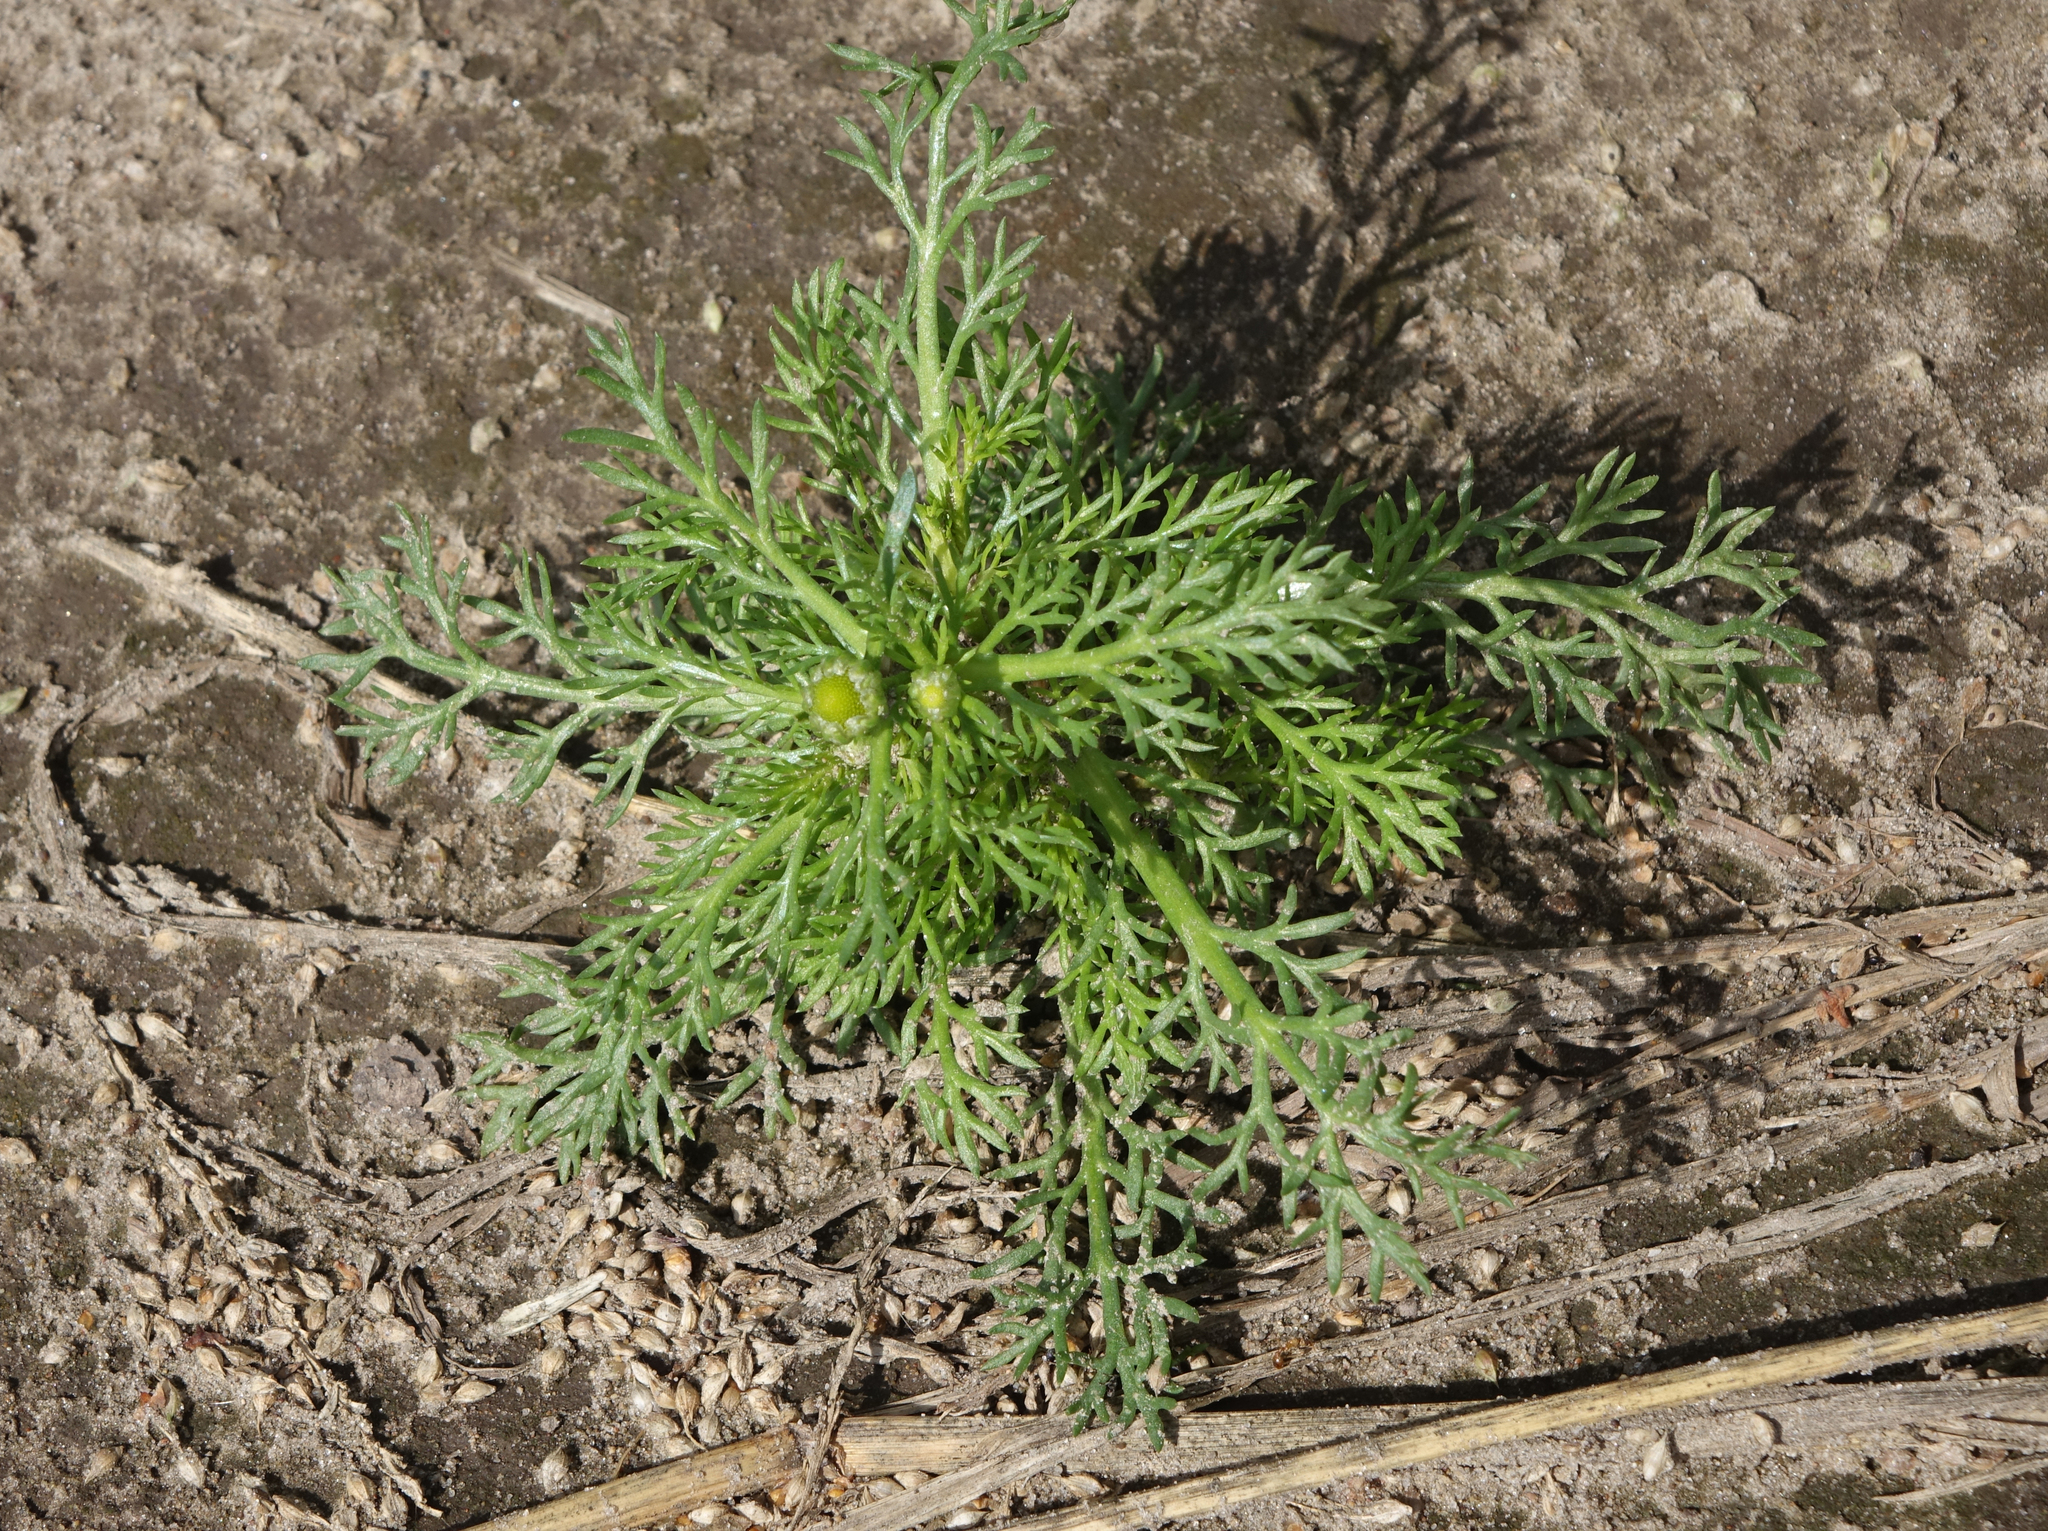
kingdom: Plantae
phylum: Tracheophyta
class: Magnoliopsida
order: Asterales
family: Asteraceae
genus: Matricaria
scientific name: Matricaria discoidea
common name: Disc mayweed
